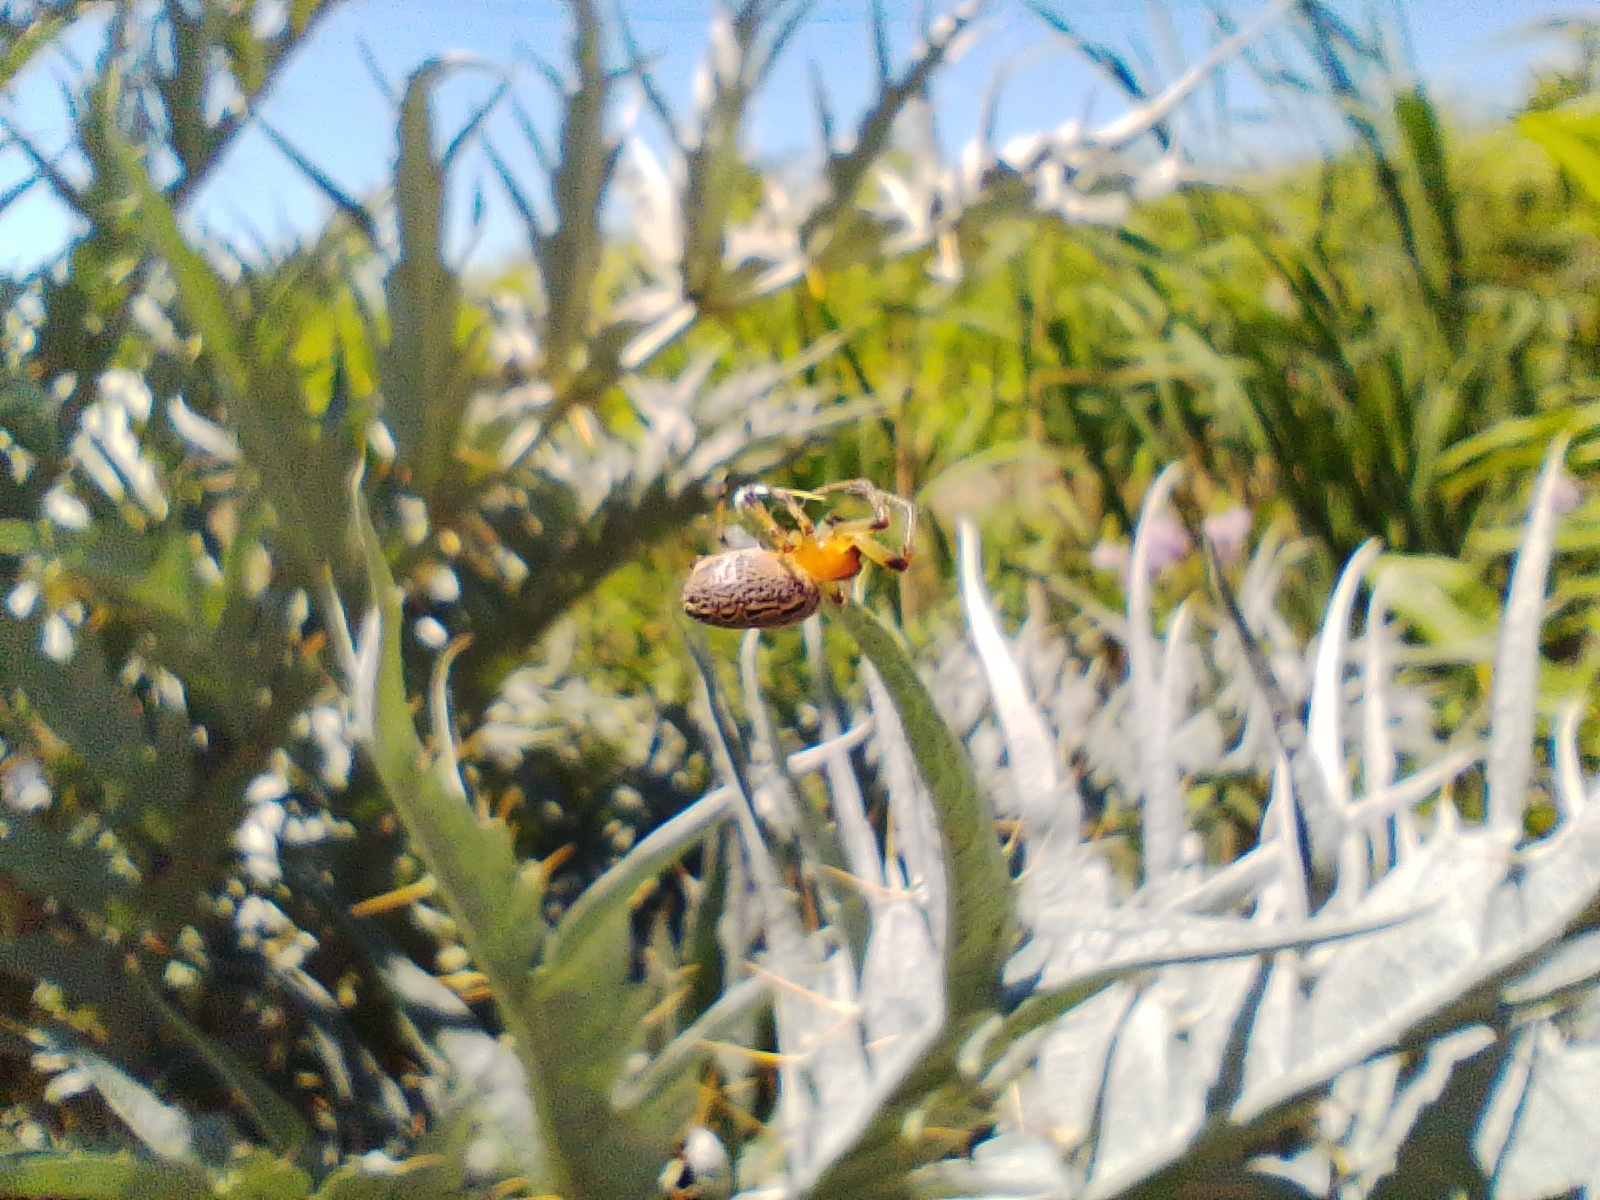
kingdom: Animalia
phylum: Arthropoda
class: Arachnida
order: Araneae
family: Araneidae
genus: Alpaida
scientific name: Alpaida veniliae
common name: Orb weavers
